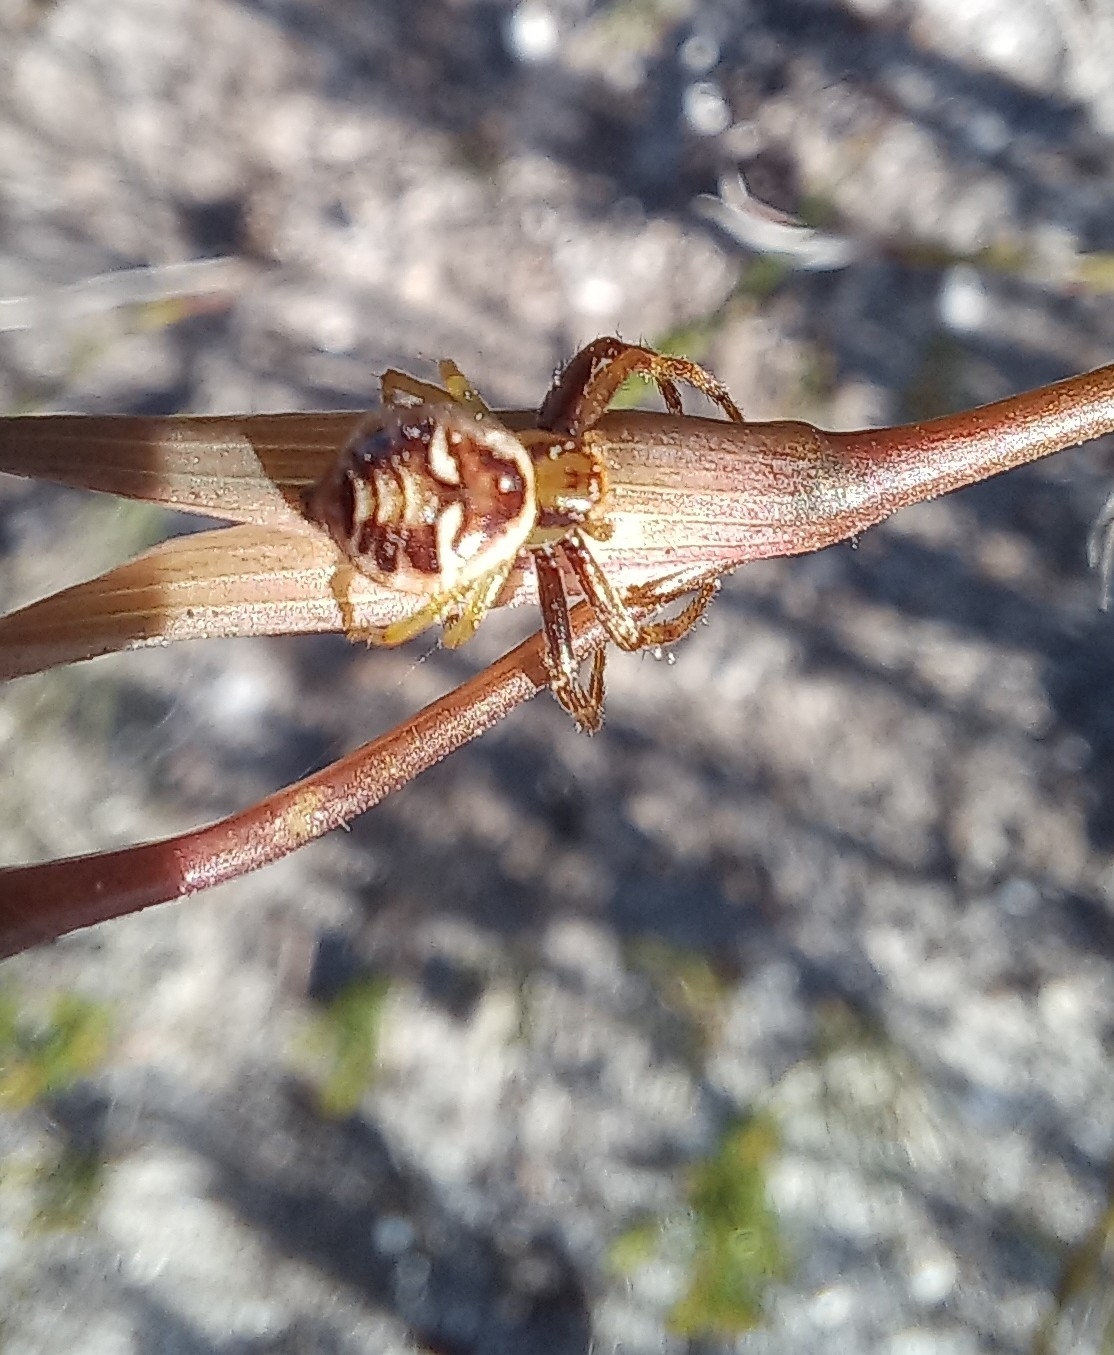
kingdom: Animalia
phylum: Arthropoda
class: Arachnida
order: Araneae
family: Thomisidae
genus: Synema
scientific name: Synema imitatrix
